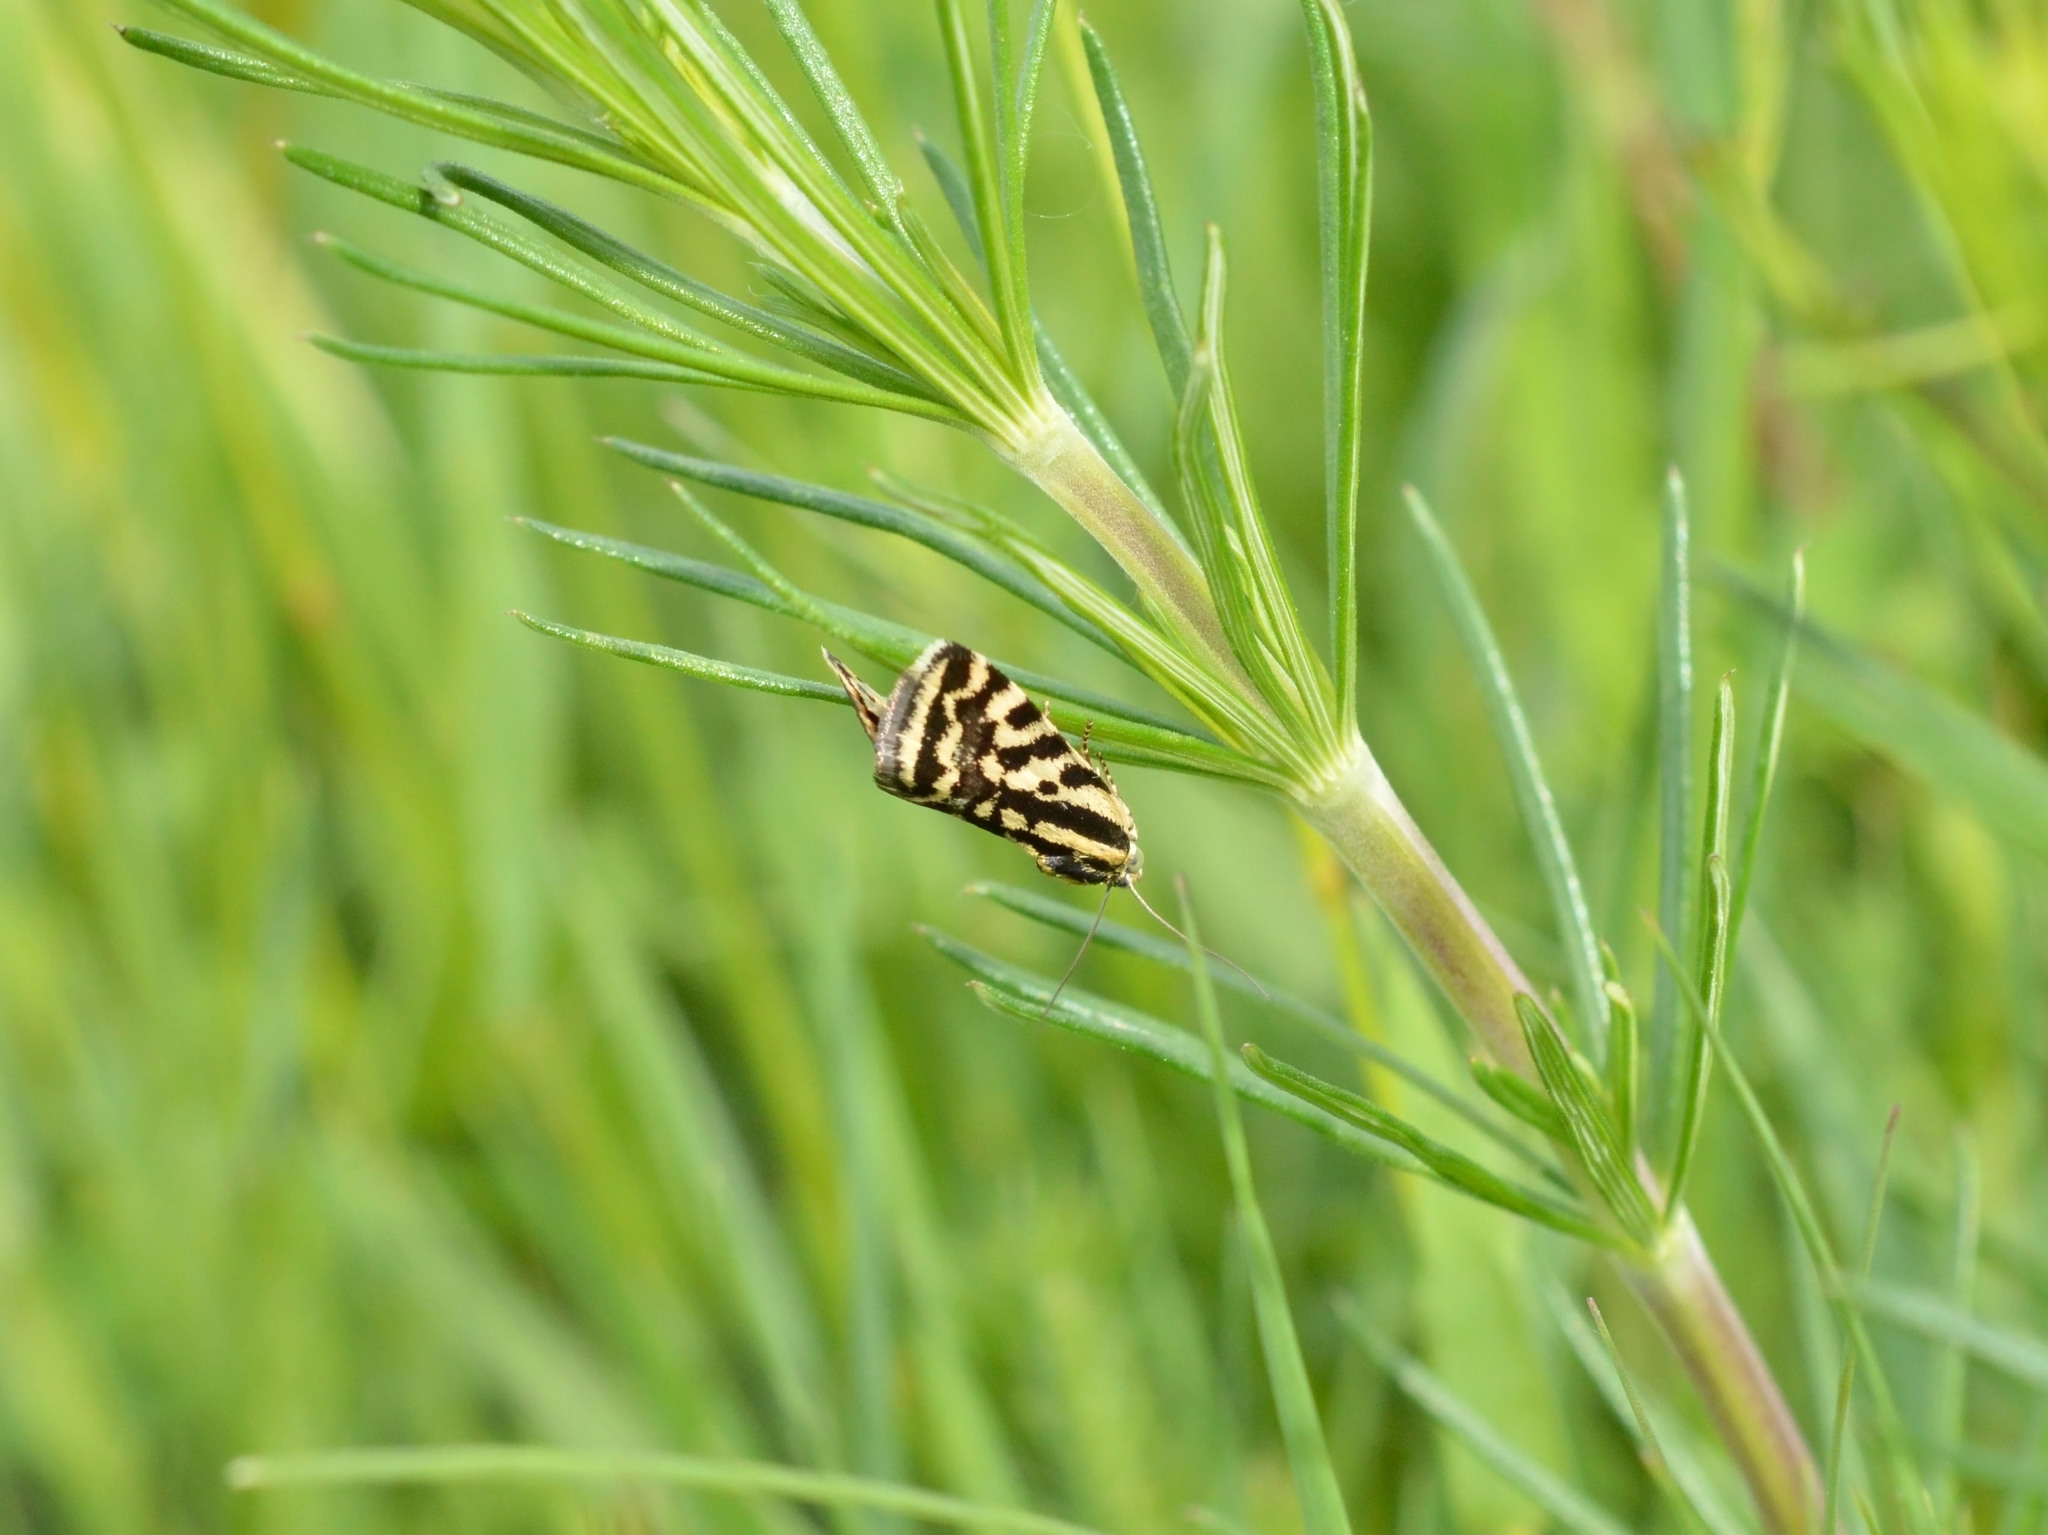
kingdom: Animalia
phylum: Arthropoda
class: Insecta
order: Lepidoptera
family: Noctuidae
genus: Acontia
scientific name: Acontia trabealis
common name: Spotted sulphur
